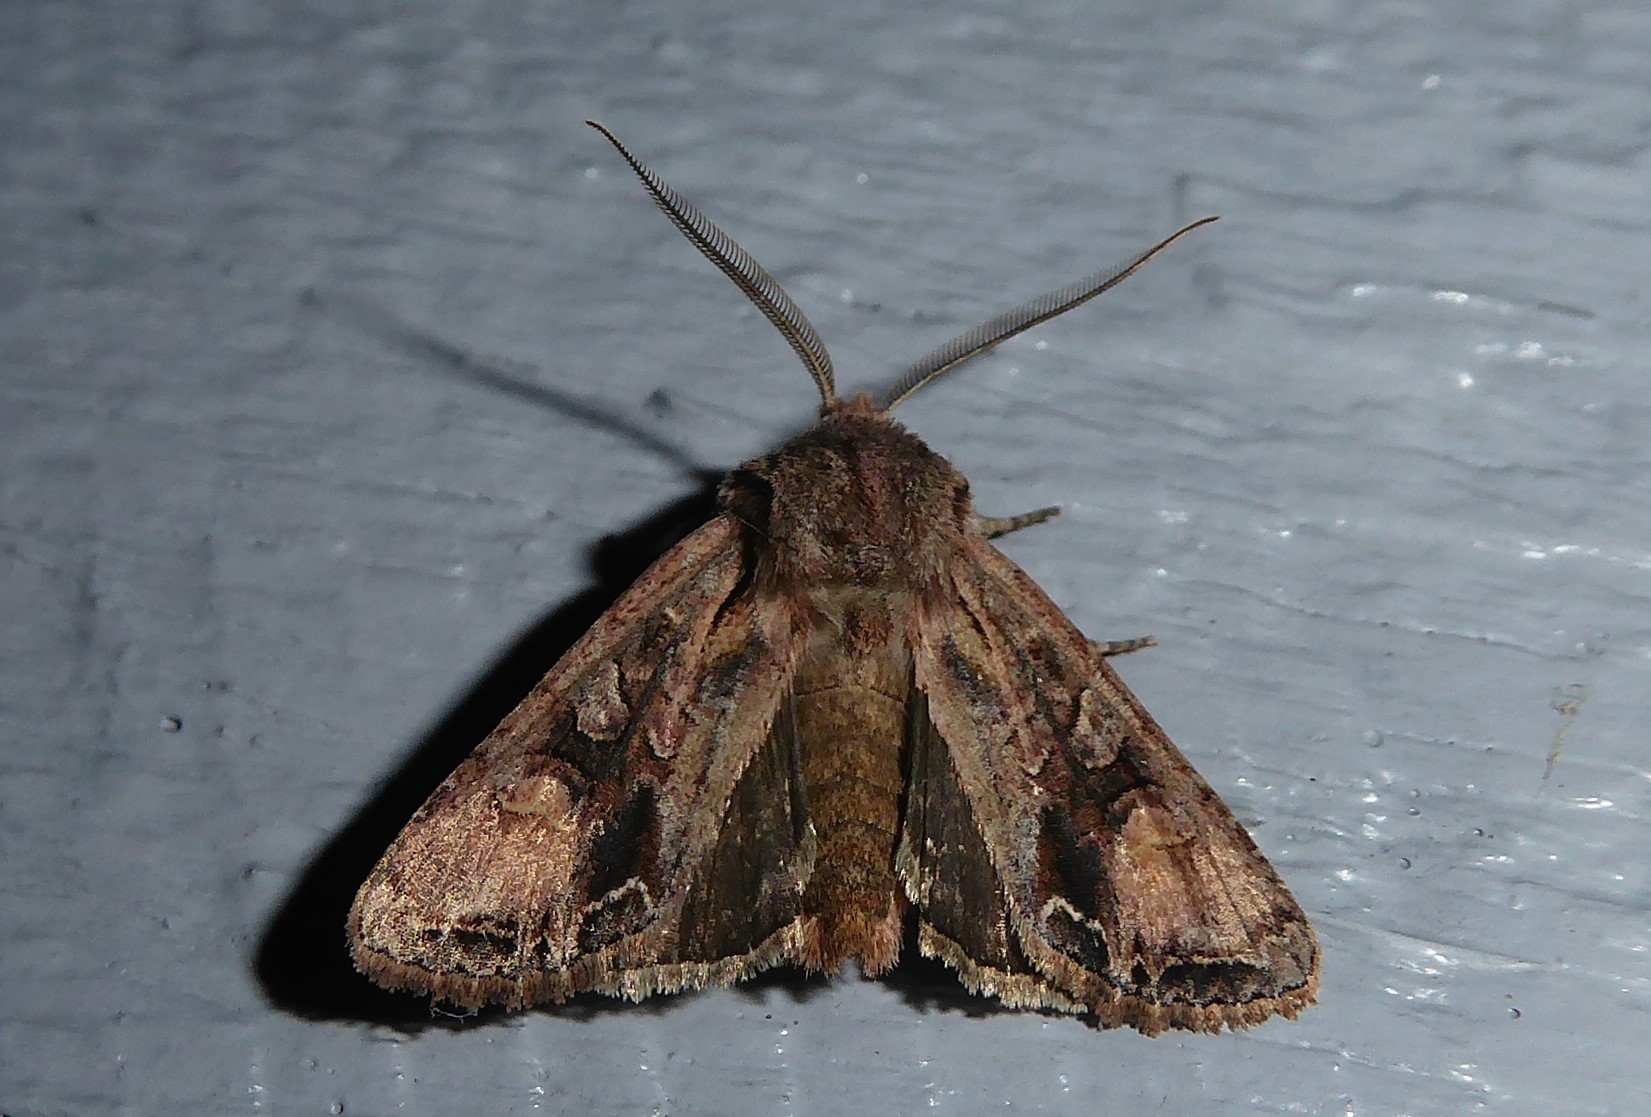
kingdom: Animalia
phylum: Arthropoda
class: Insecta
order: Lepidoptera
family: Noctuidae
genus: Ichneutica
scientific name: Ichneutica
